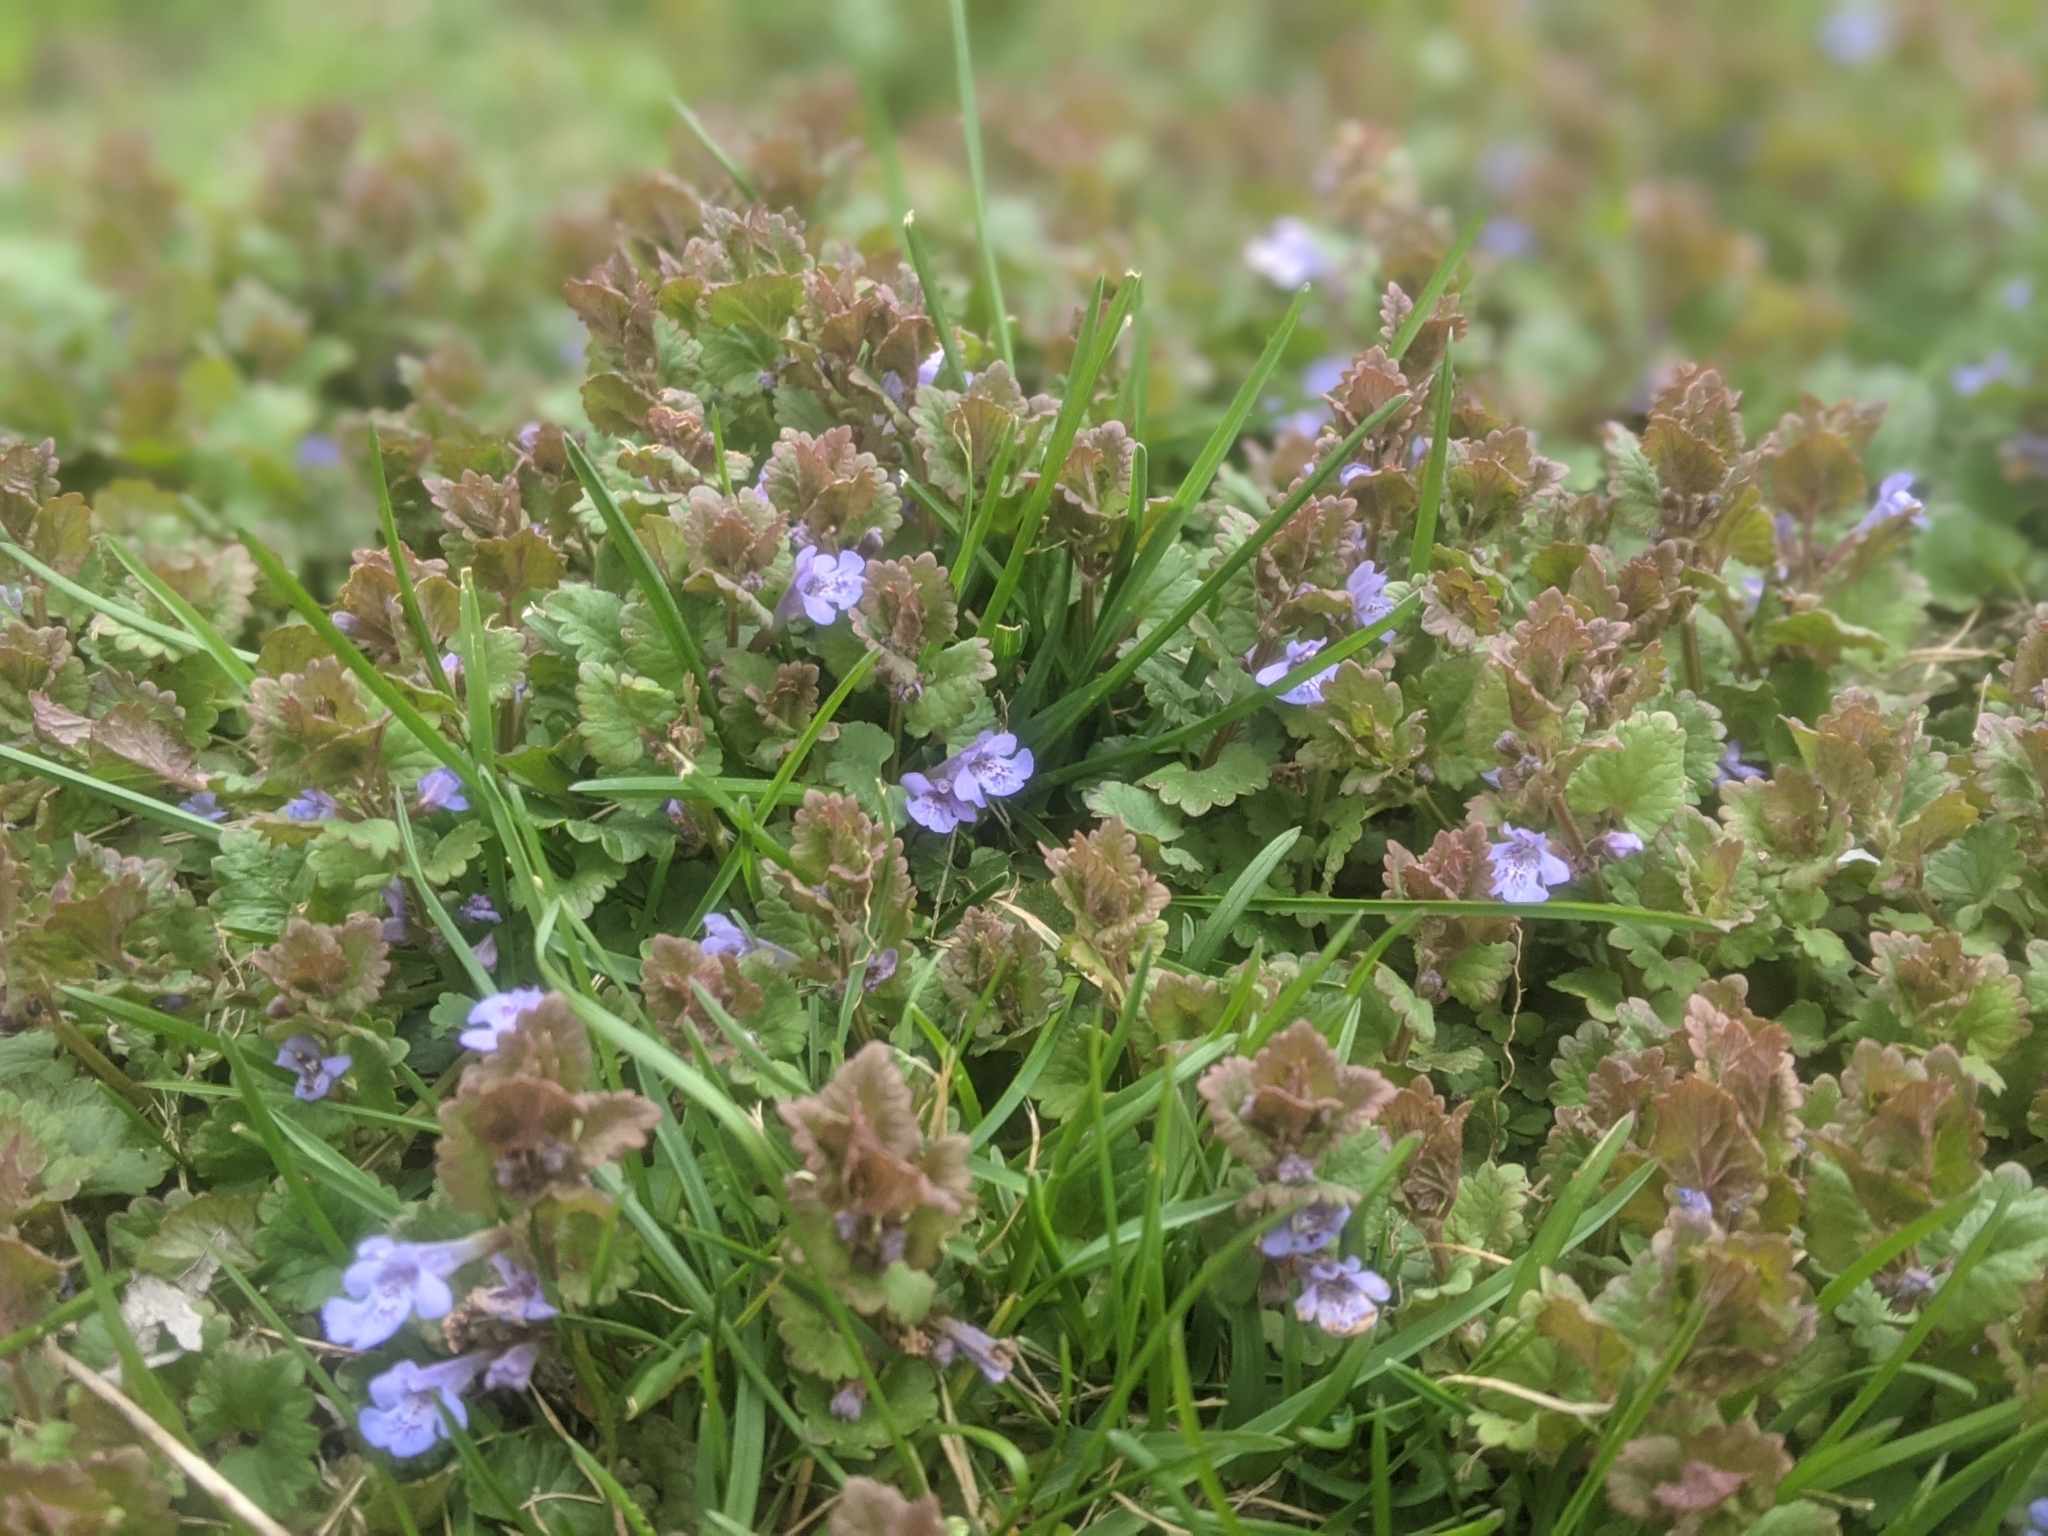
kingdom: Plantae
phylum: Tracheophyta
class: Magnoliopsida
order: Lamiales
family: Lamiaceae
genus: Glechoma
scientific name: Glechoma hederacea
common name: Ground ivy
